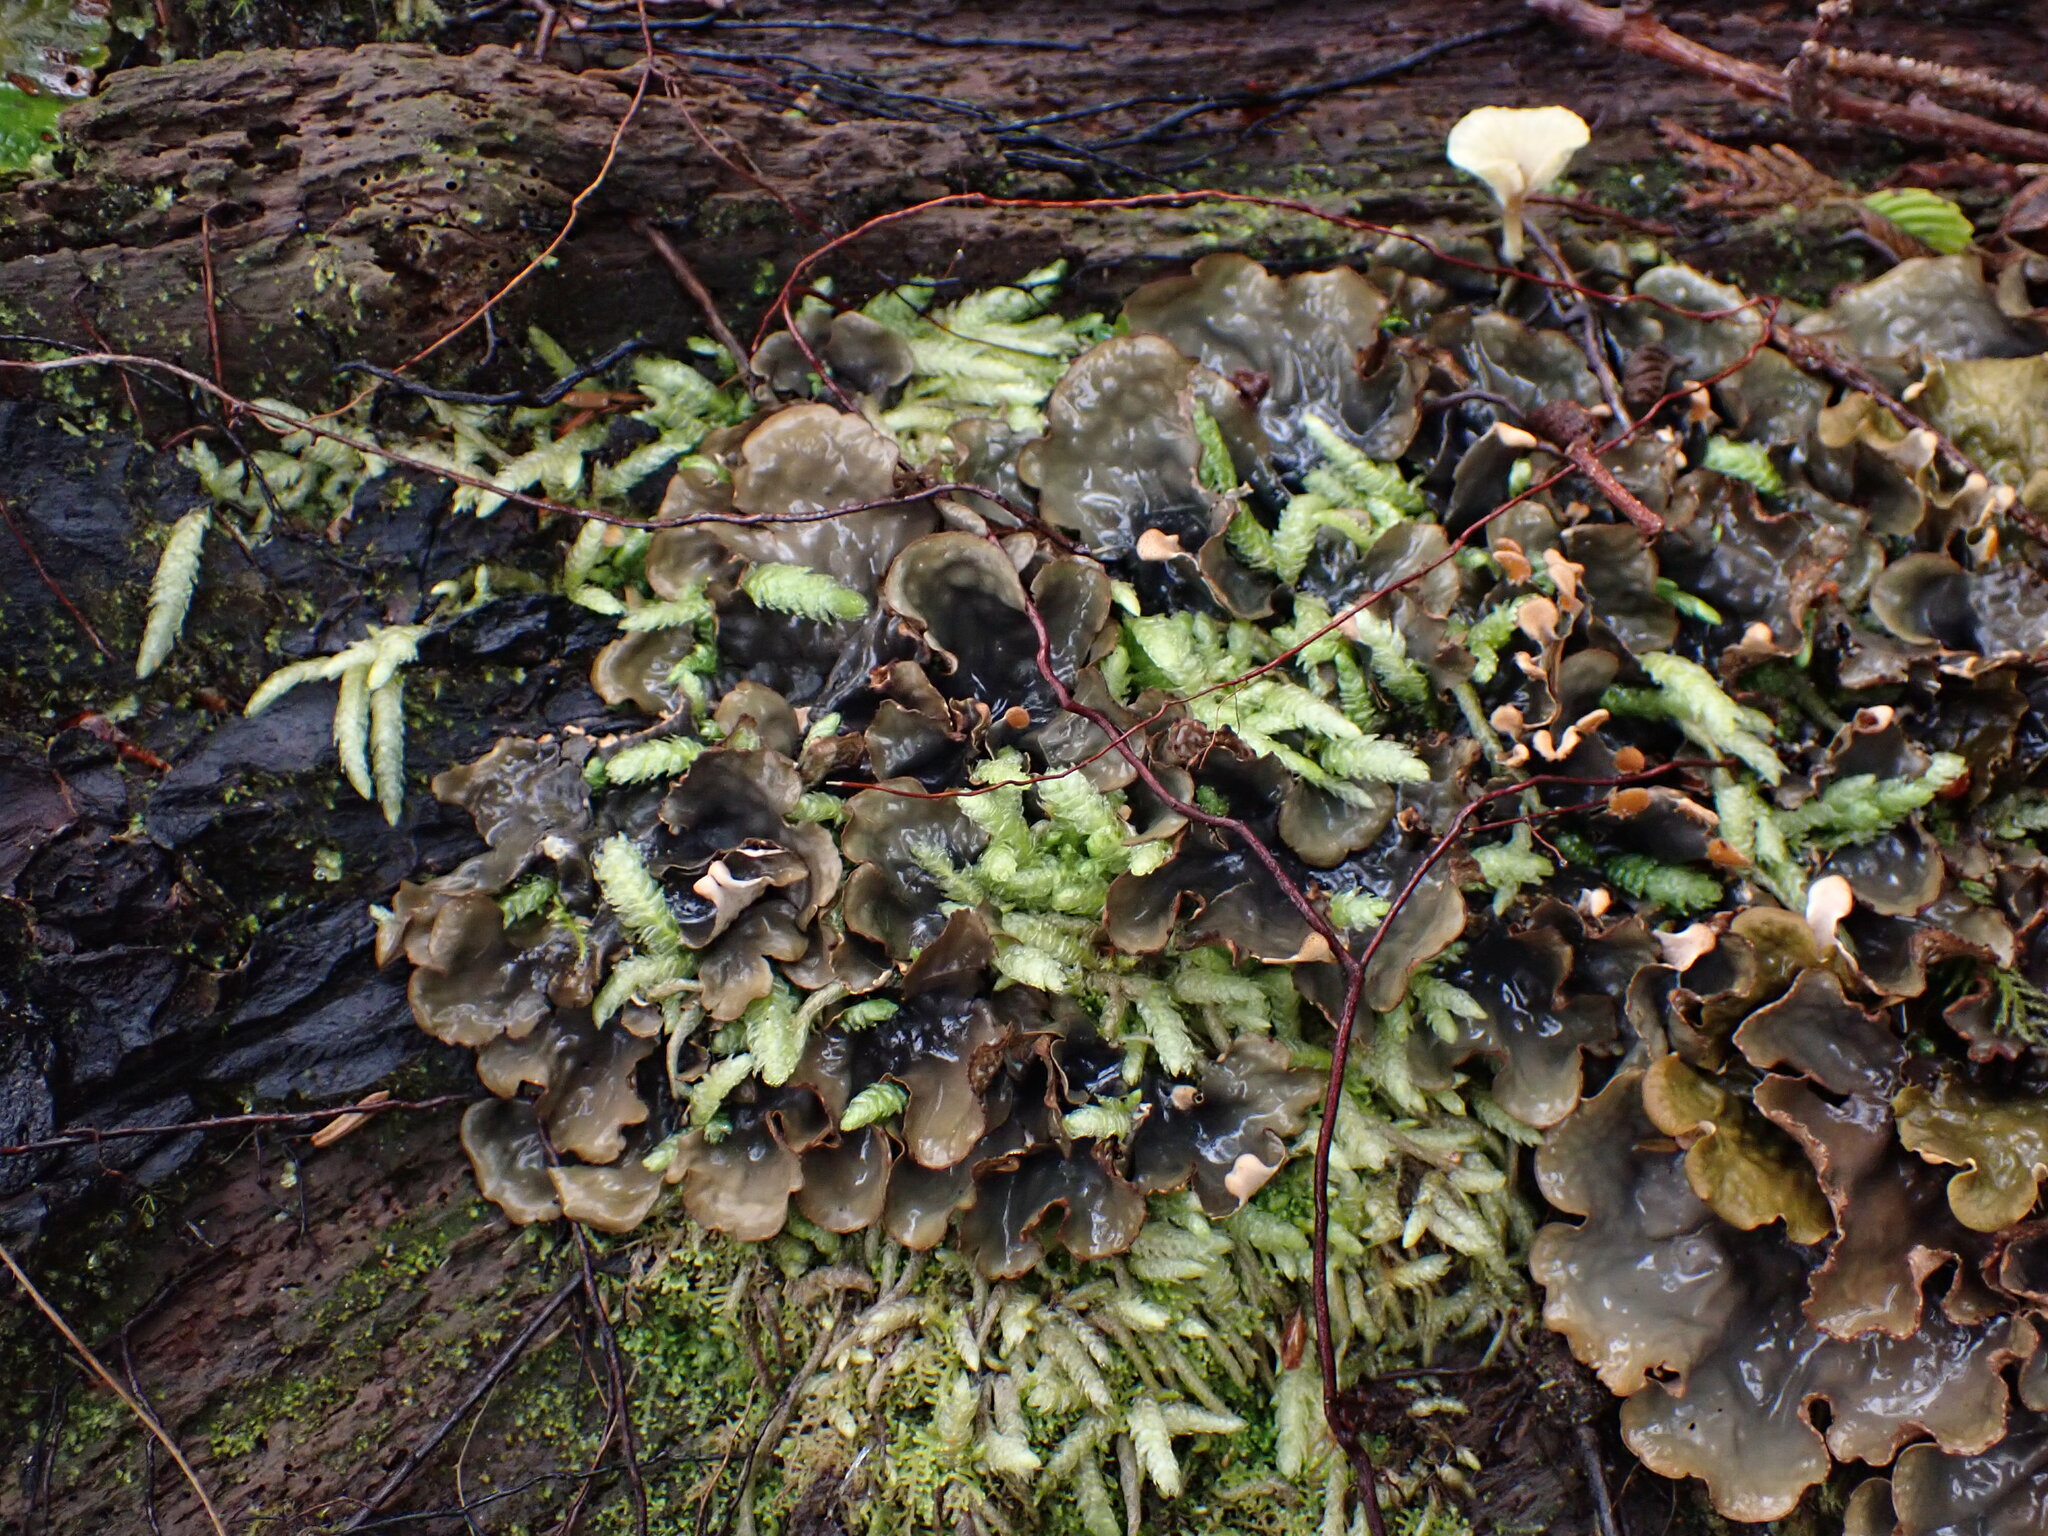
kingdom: Plantae
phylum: Bryophyta
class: Bryopsida
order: Hypnales
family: Plagiotheciaceae
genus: Plagiothecium
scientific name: Plagiothecium undulatum
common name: Waved silk-moss
